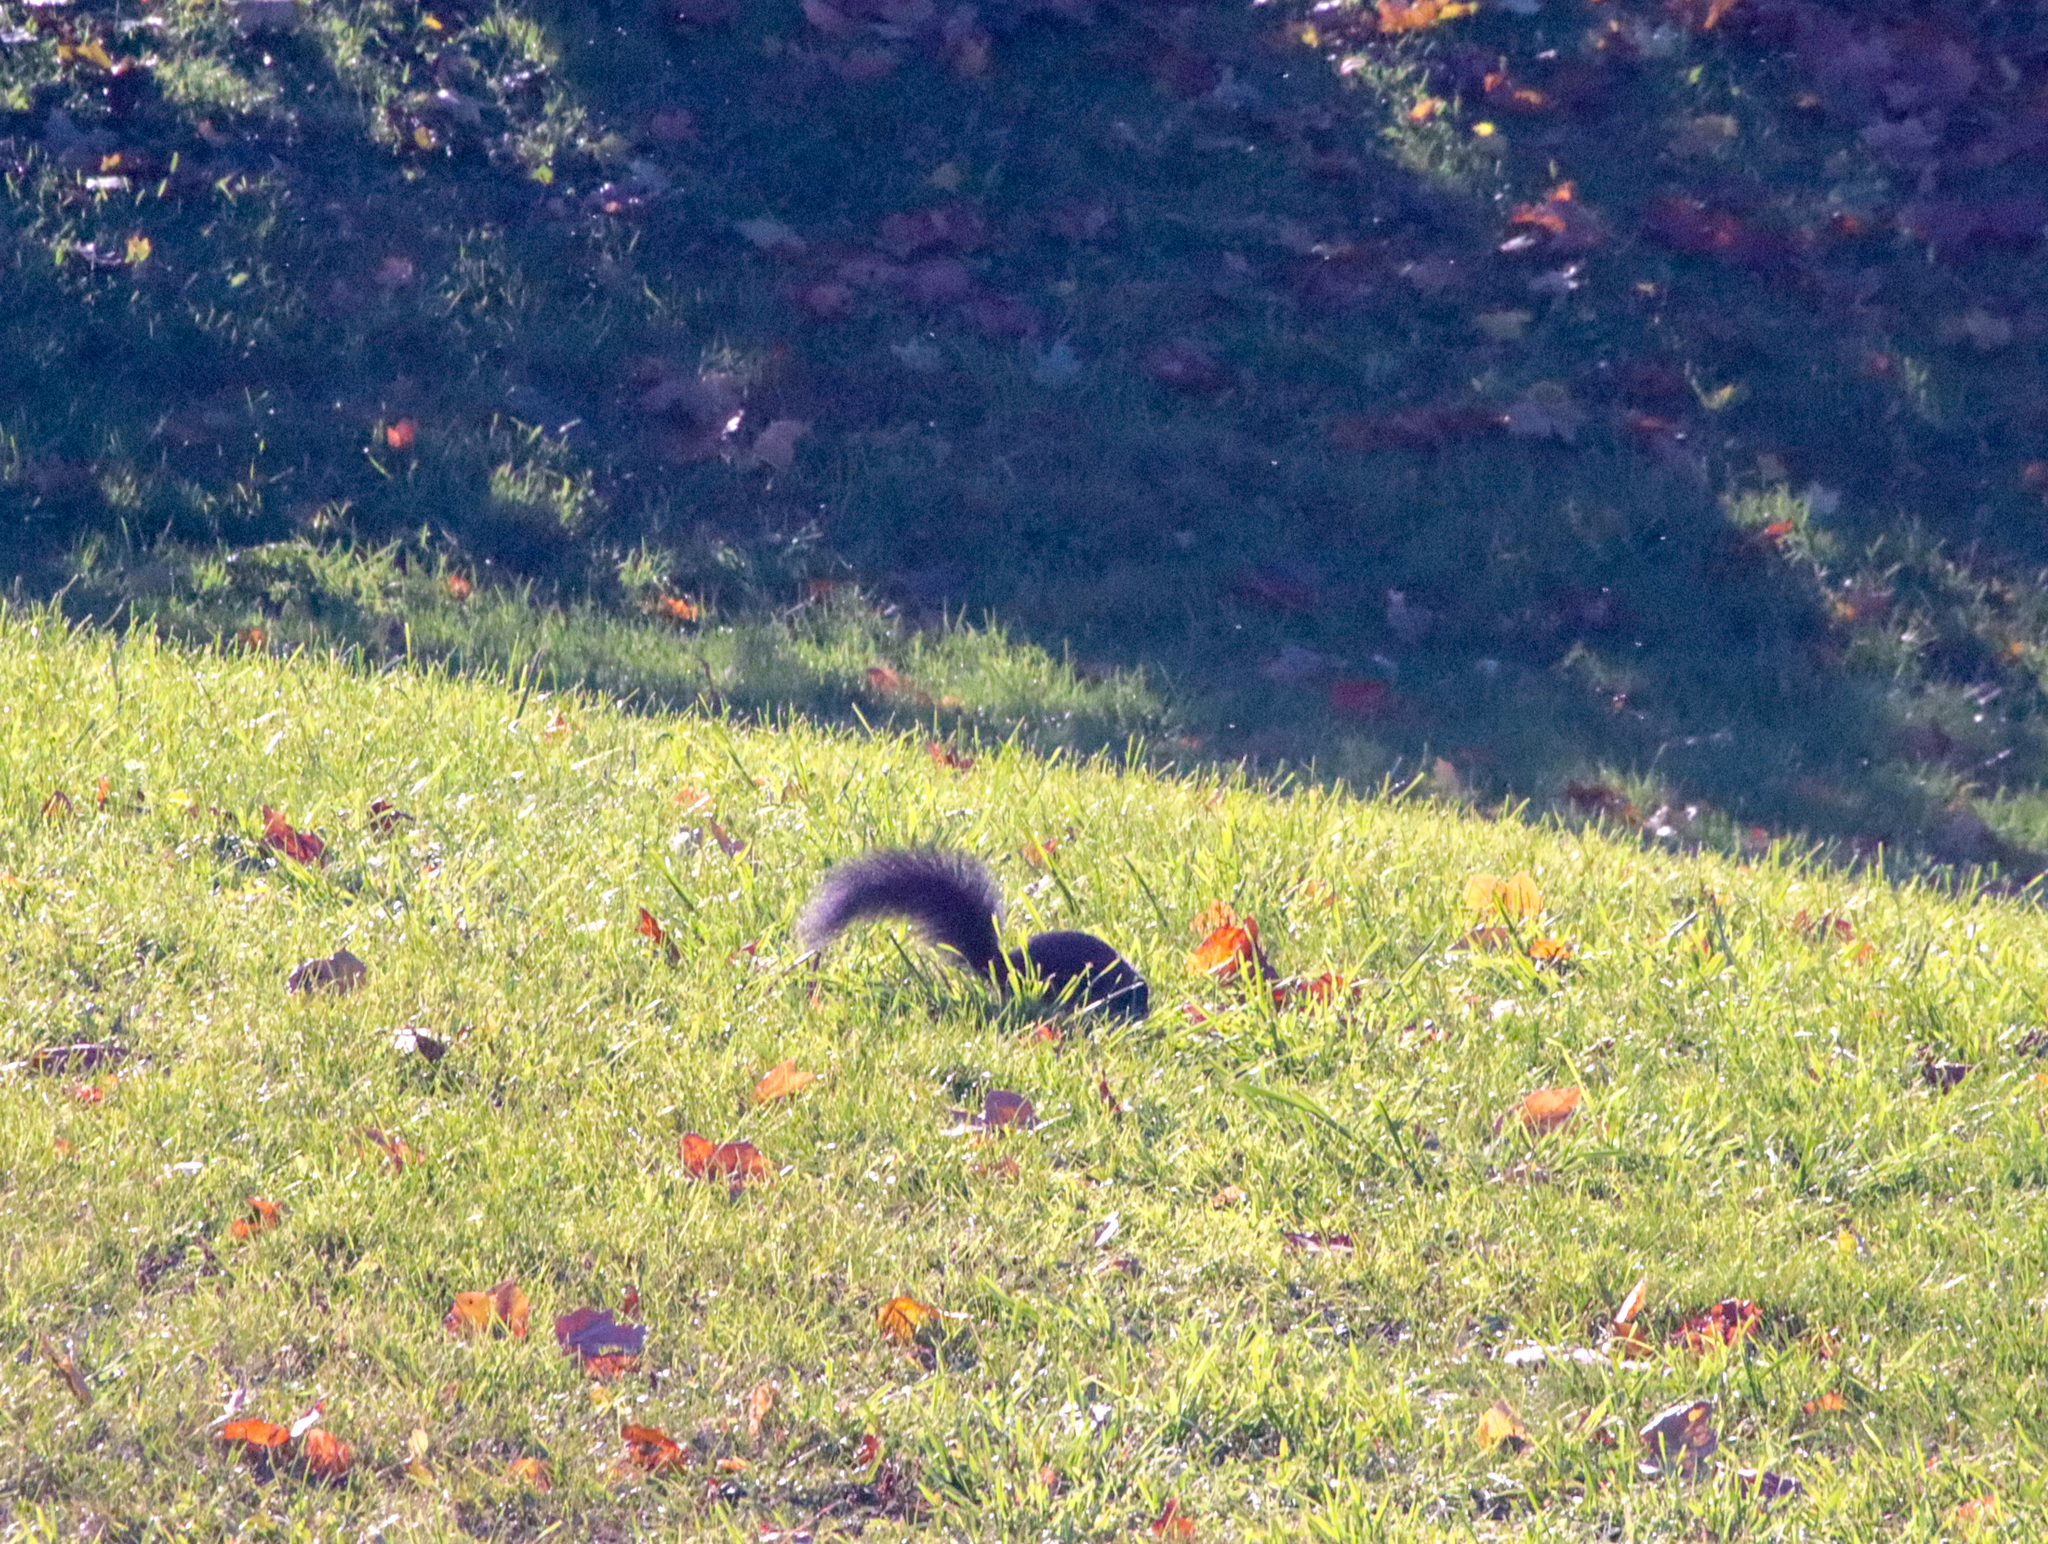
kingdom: Animalia
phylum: Chordata
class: Mammalia
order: Rodentia
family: Sciuridae
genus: Sciurus
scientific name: Sciurus carolinensis
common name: Eastern gray squirrel
